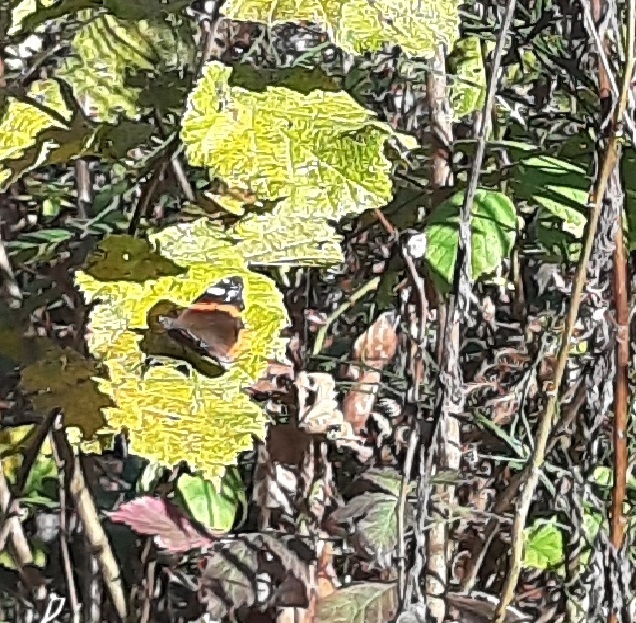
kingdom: Animalia
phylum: Arthropoda
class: Insecta
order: Lepidoptera
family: Nymphalidae
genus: Vanessa
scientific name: Vanessa atalanta
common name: Red admiral
